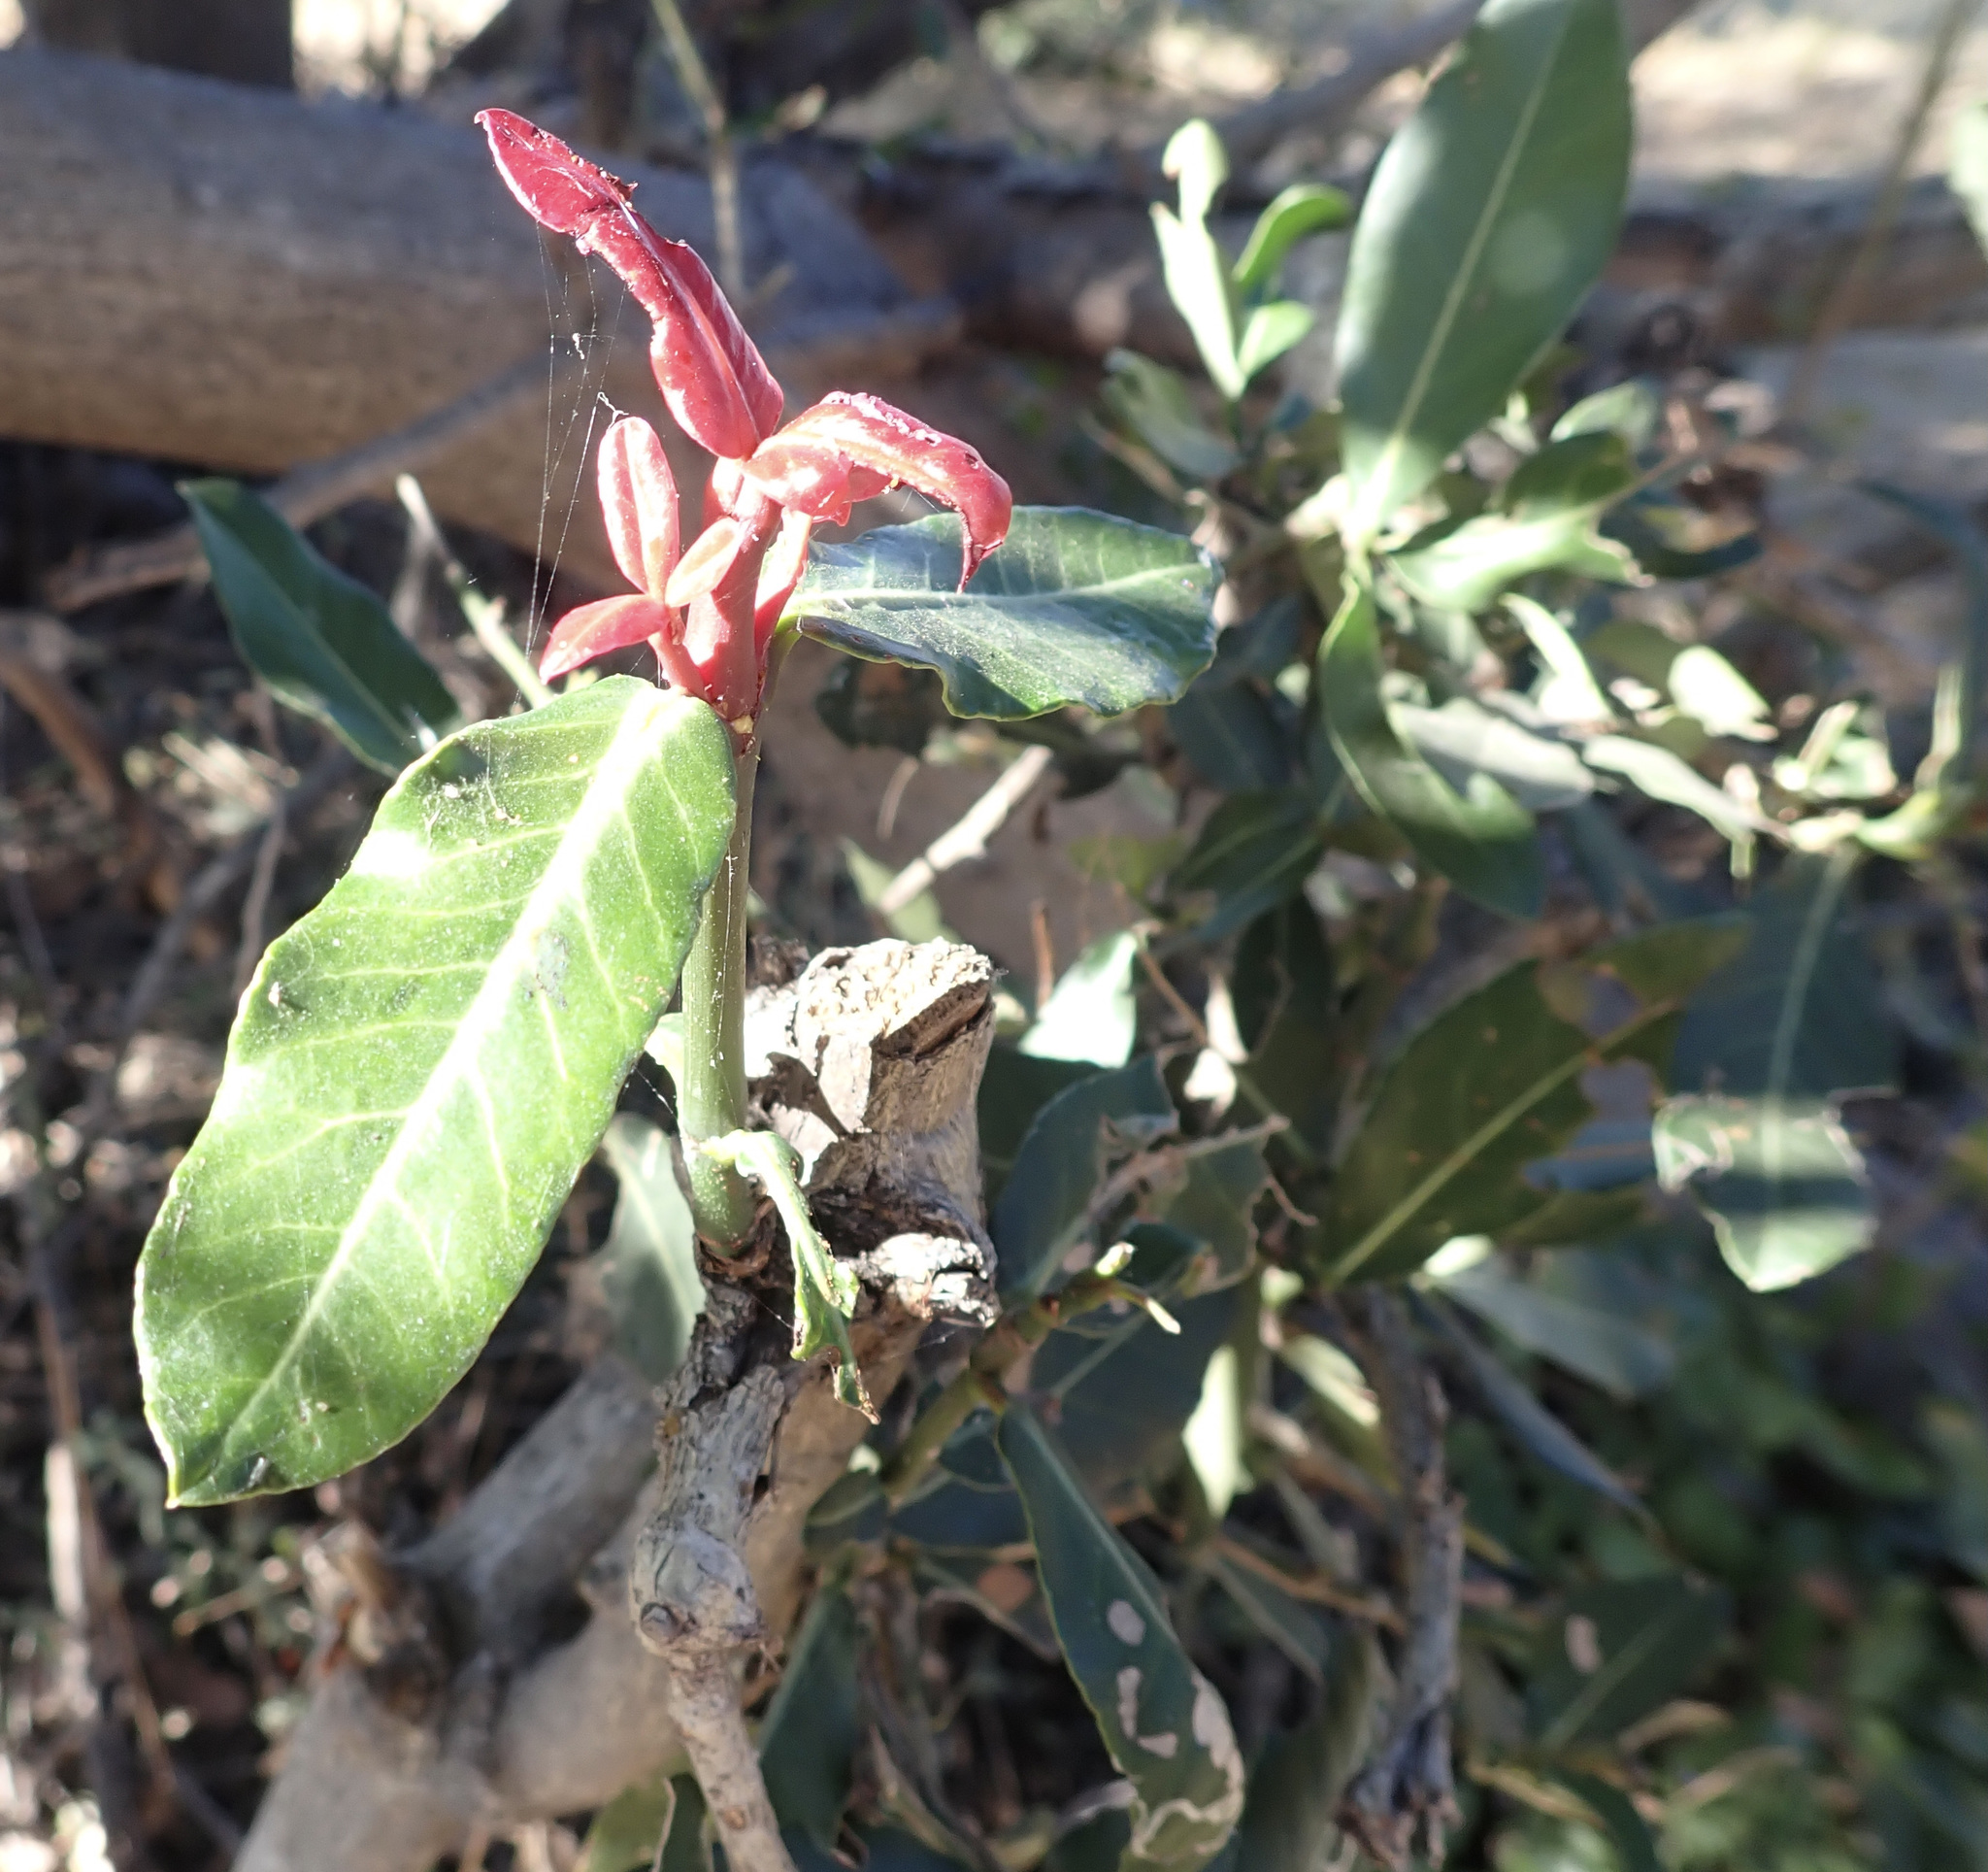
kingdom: Plantae
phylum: Tracheophyta
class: Magnoliopsida
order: Malpighiales
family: Clusiaceae
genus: Garcinia
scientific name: Garcinia livingstonei
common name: African mangosteen
